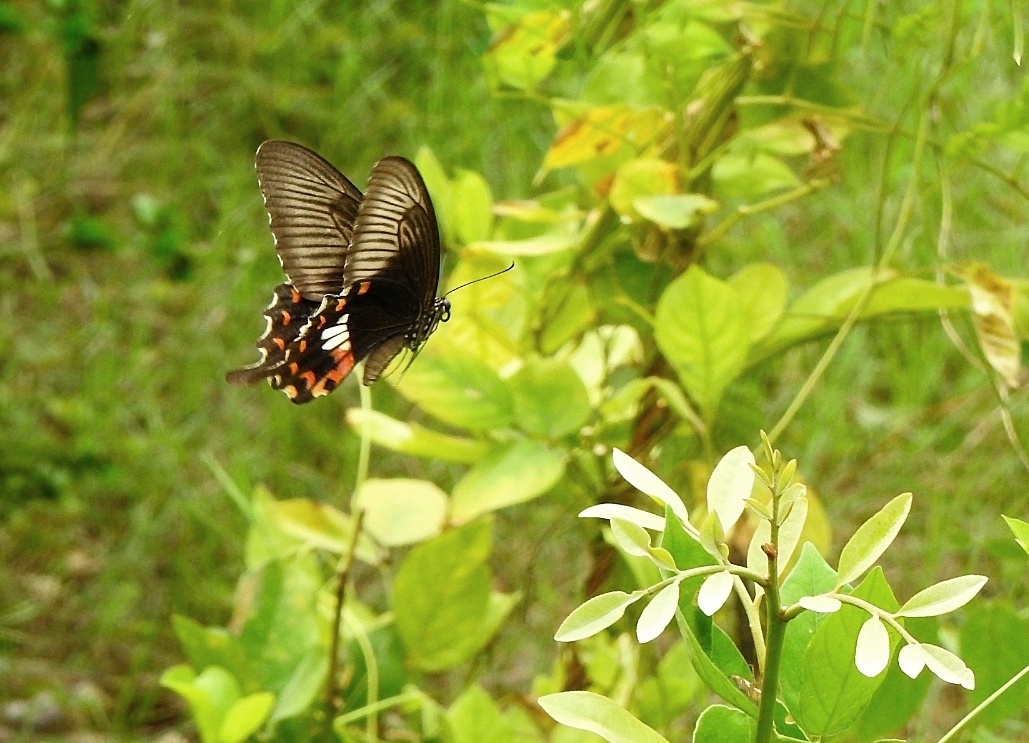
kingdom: Animalia
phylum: Arthropoda
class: Insecta
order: Lepidoptera
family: Papilionidae
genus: Papilio
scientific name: Papilio polytes
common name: Common mormon
